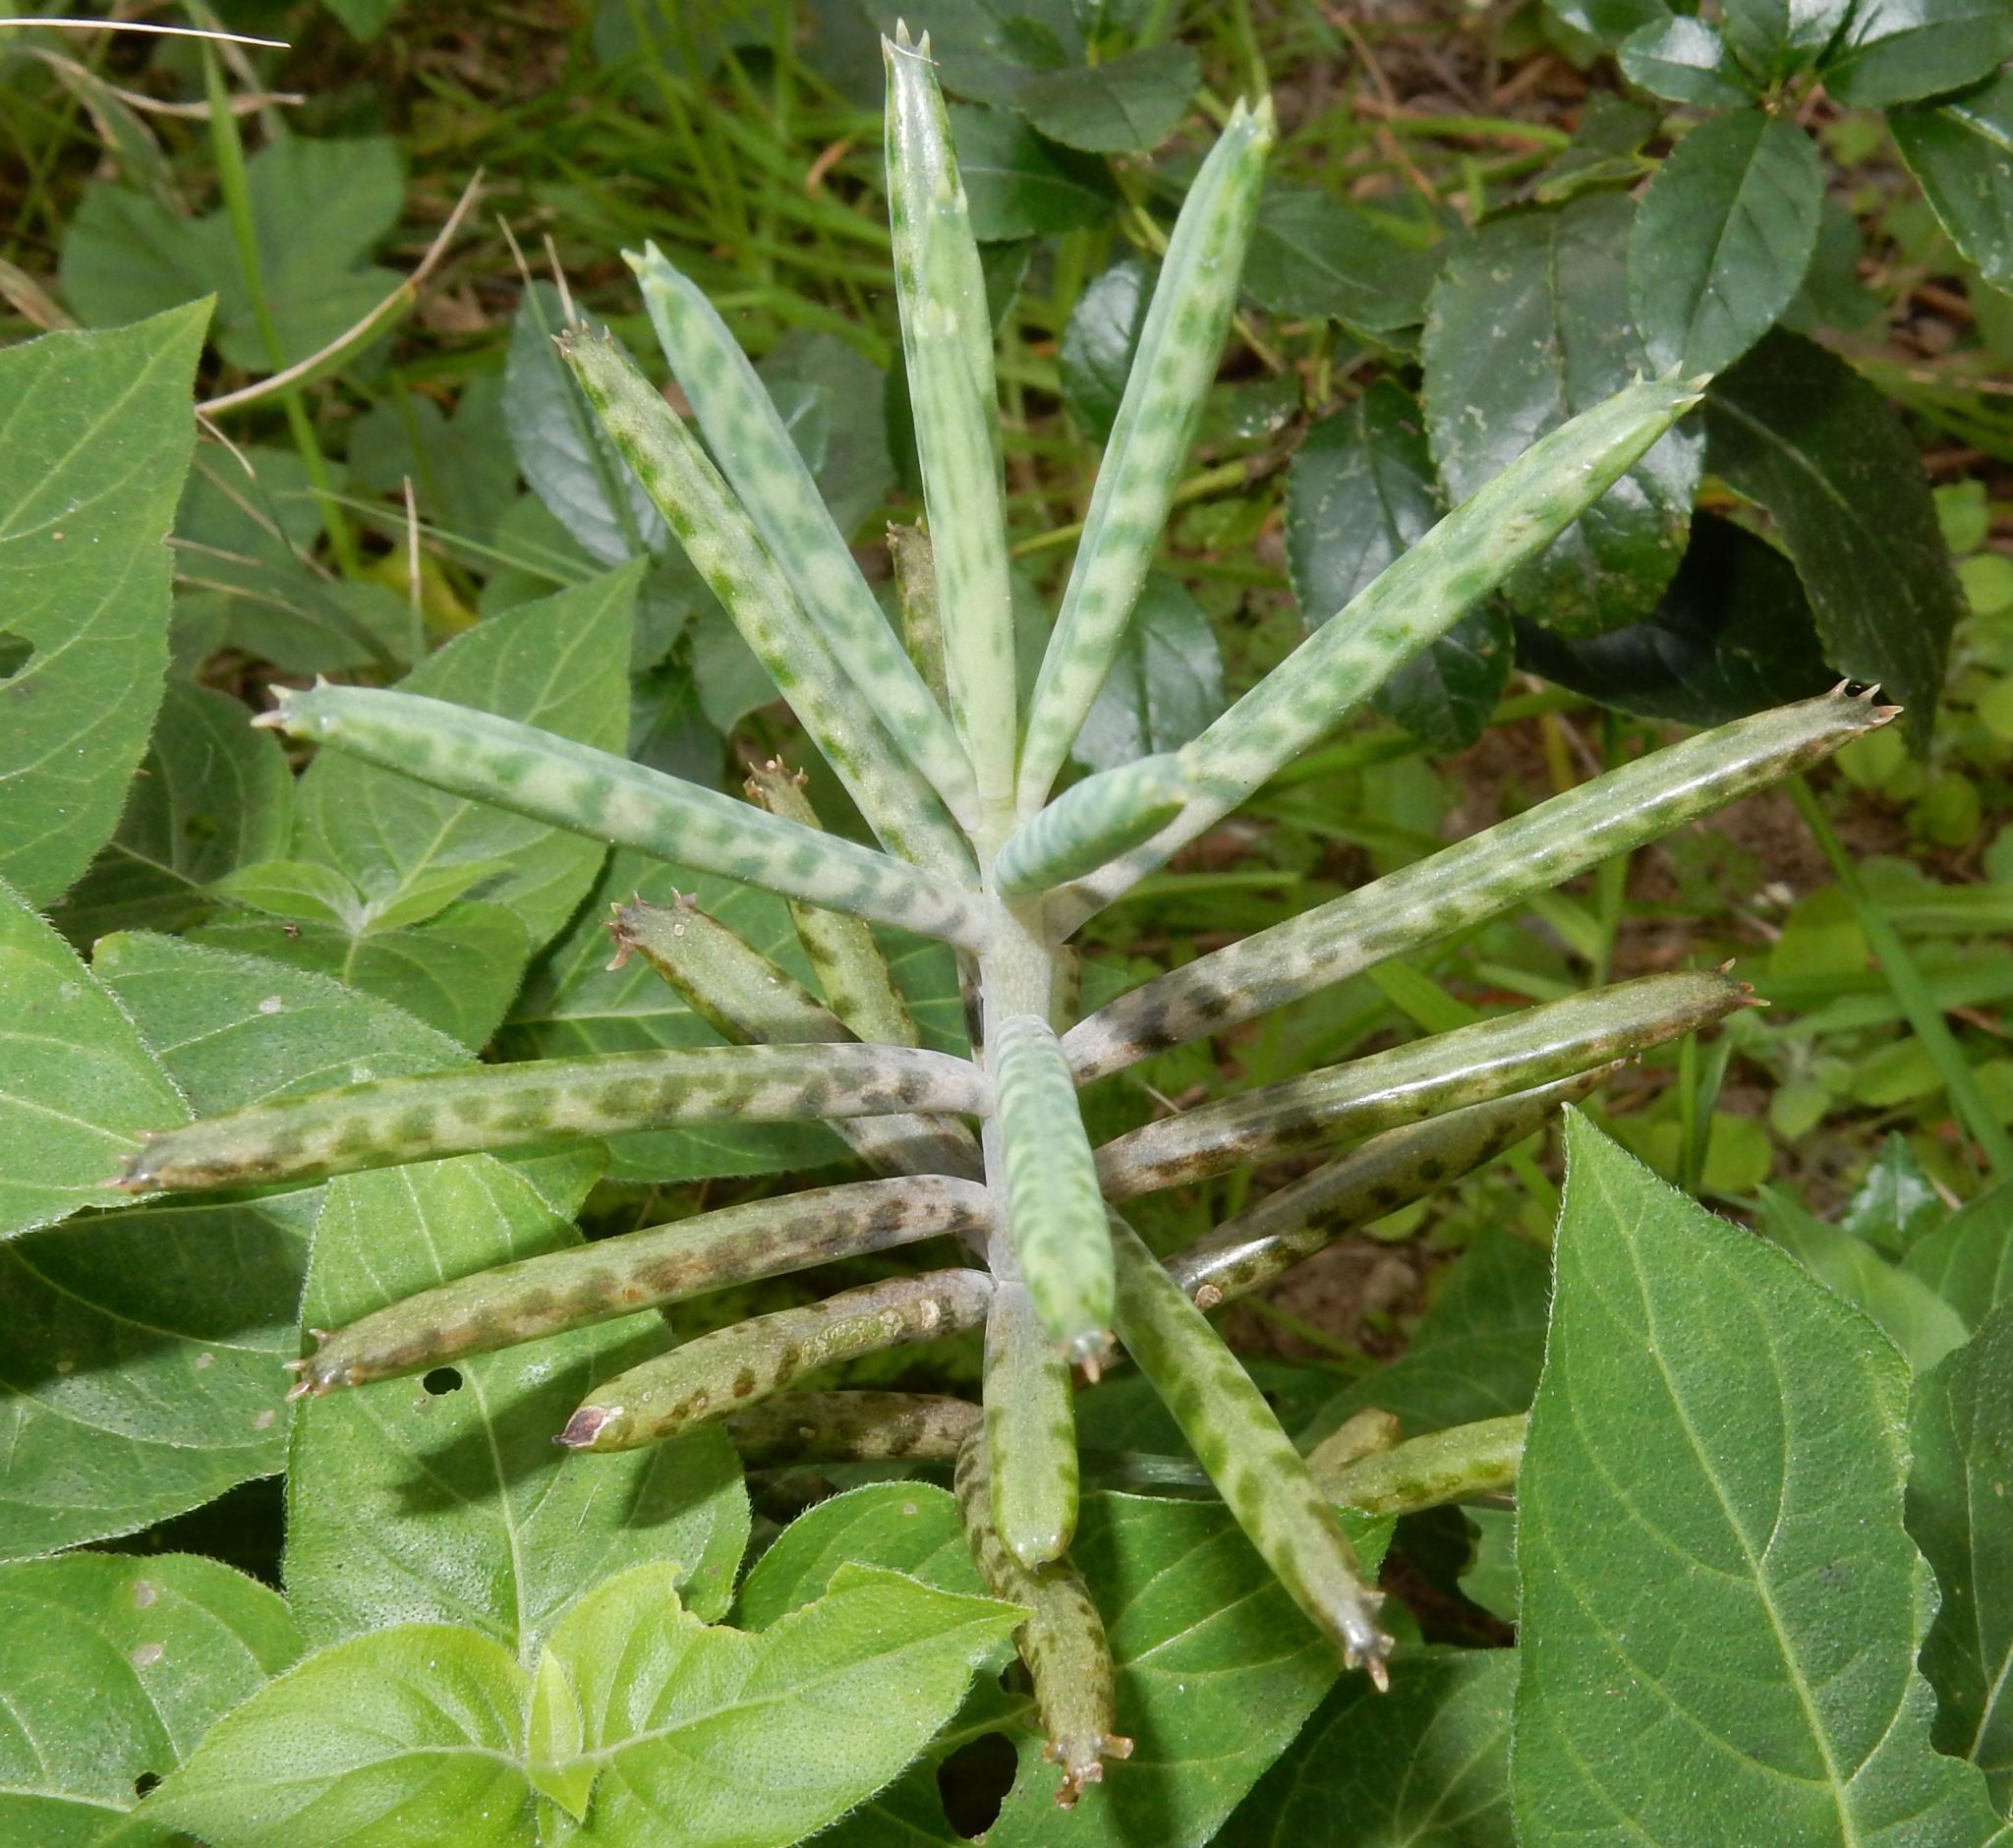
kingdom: Plantae
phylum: Tracheophyta
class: Magnoliopsida
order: Saxifragales
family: Crassulaceae
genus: Kalanchoe
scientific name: Kalanchoe delagoensis
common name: Chandelier plant
